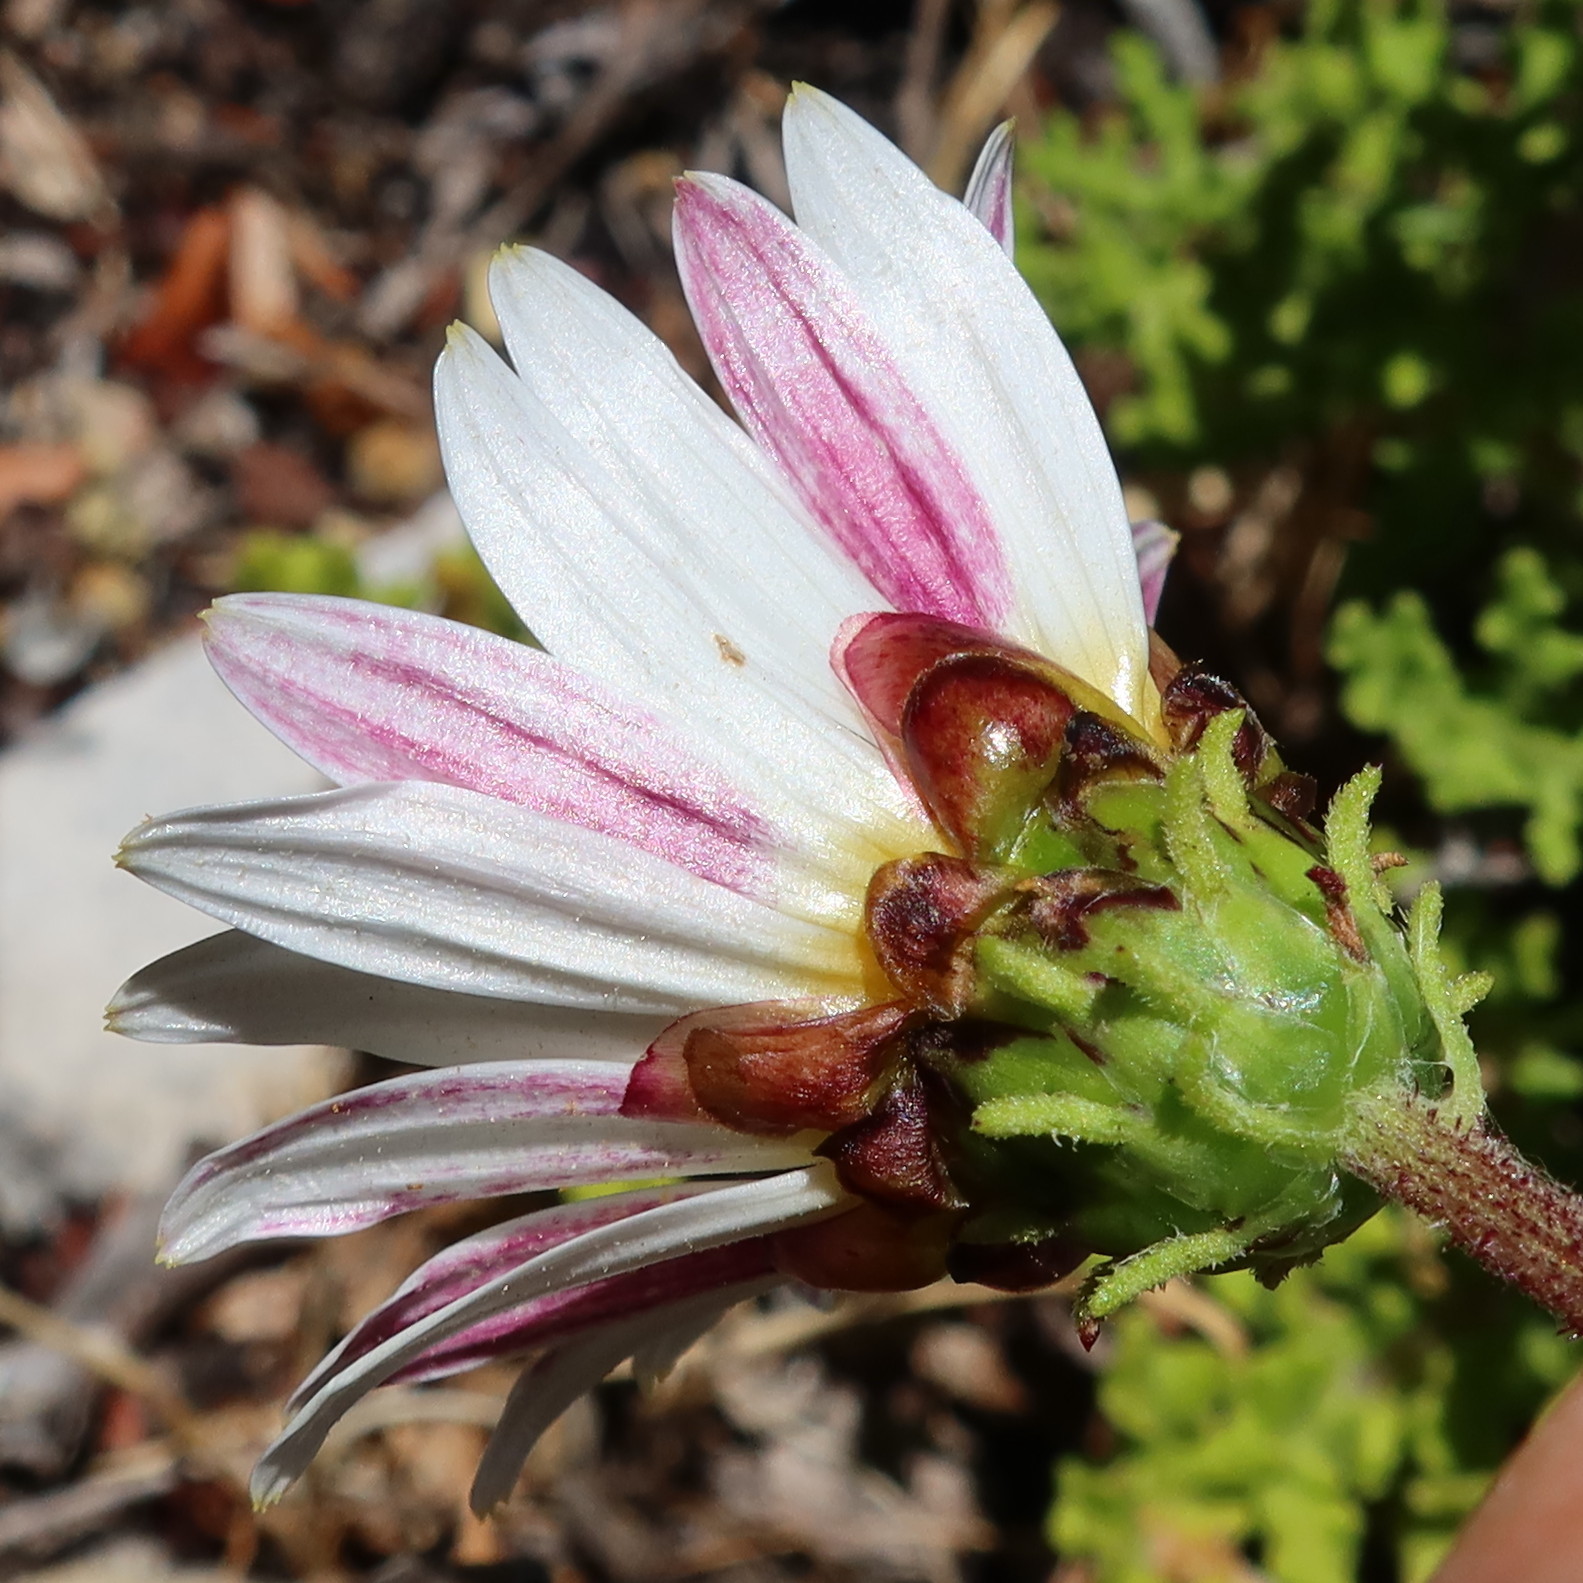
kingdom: Plantae
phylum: Tracheophyta
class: Magnoliopsida
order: Asterales
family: Asteraceae
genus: Arctotis
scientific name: Arctotis aspera
